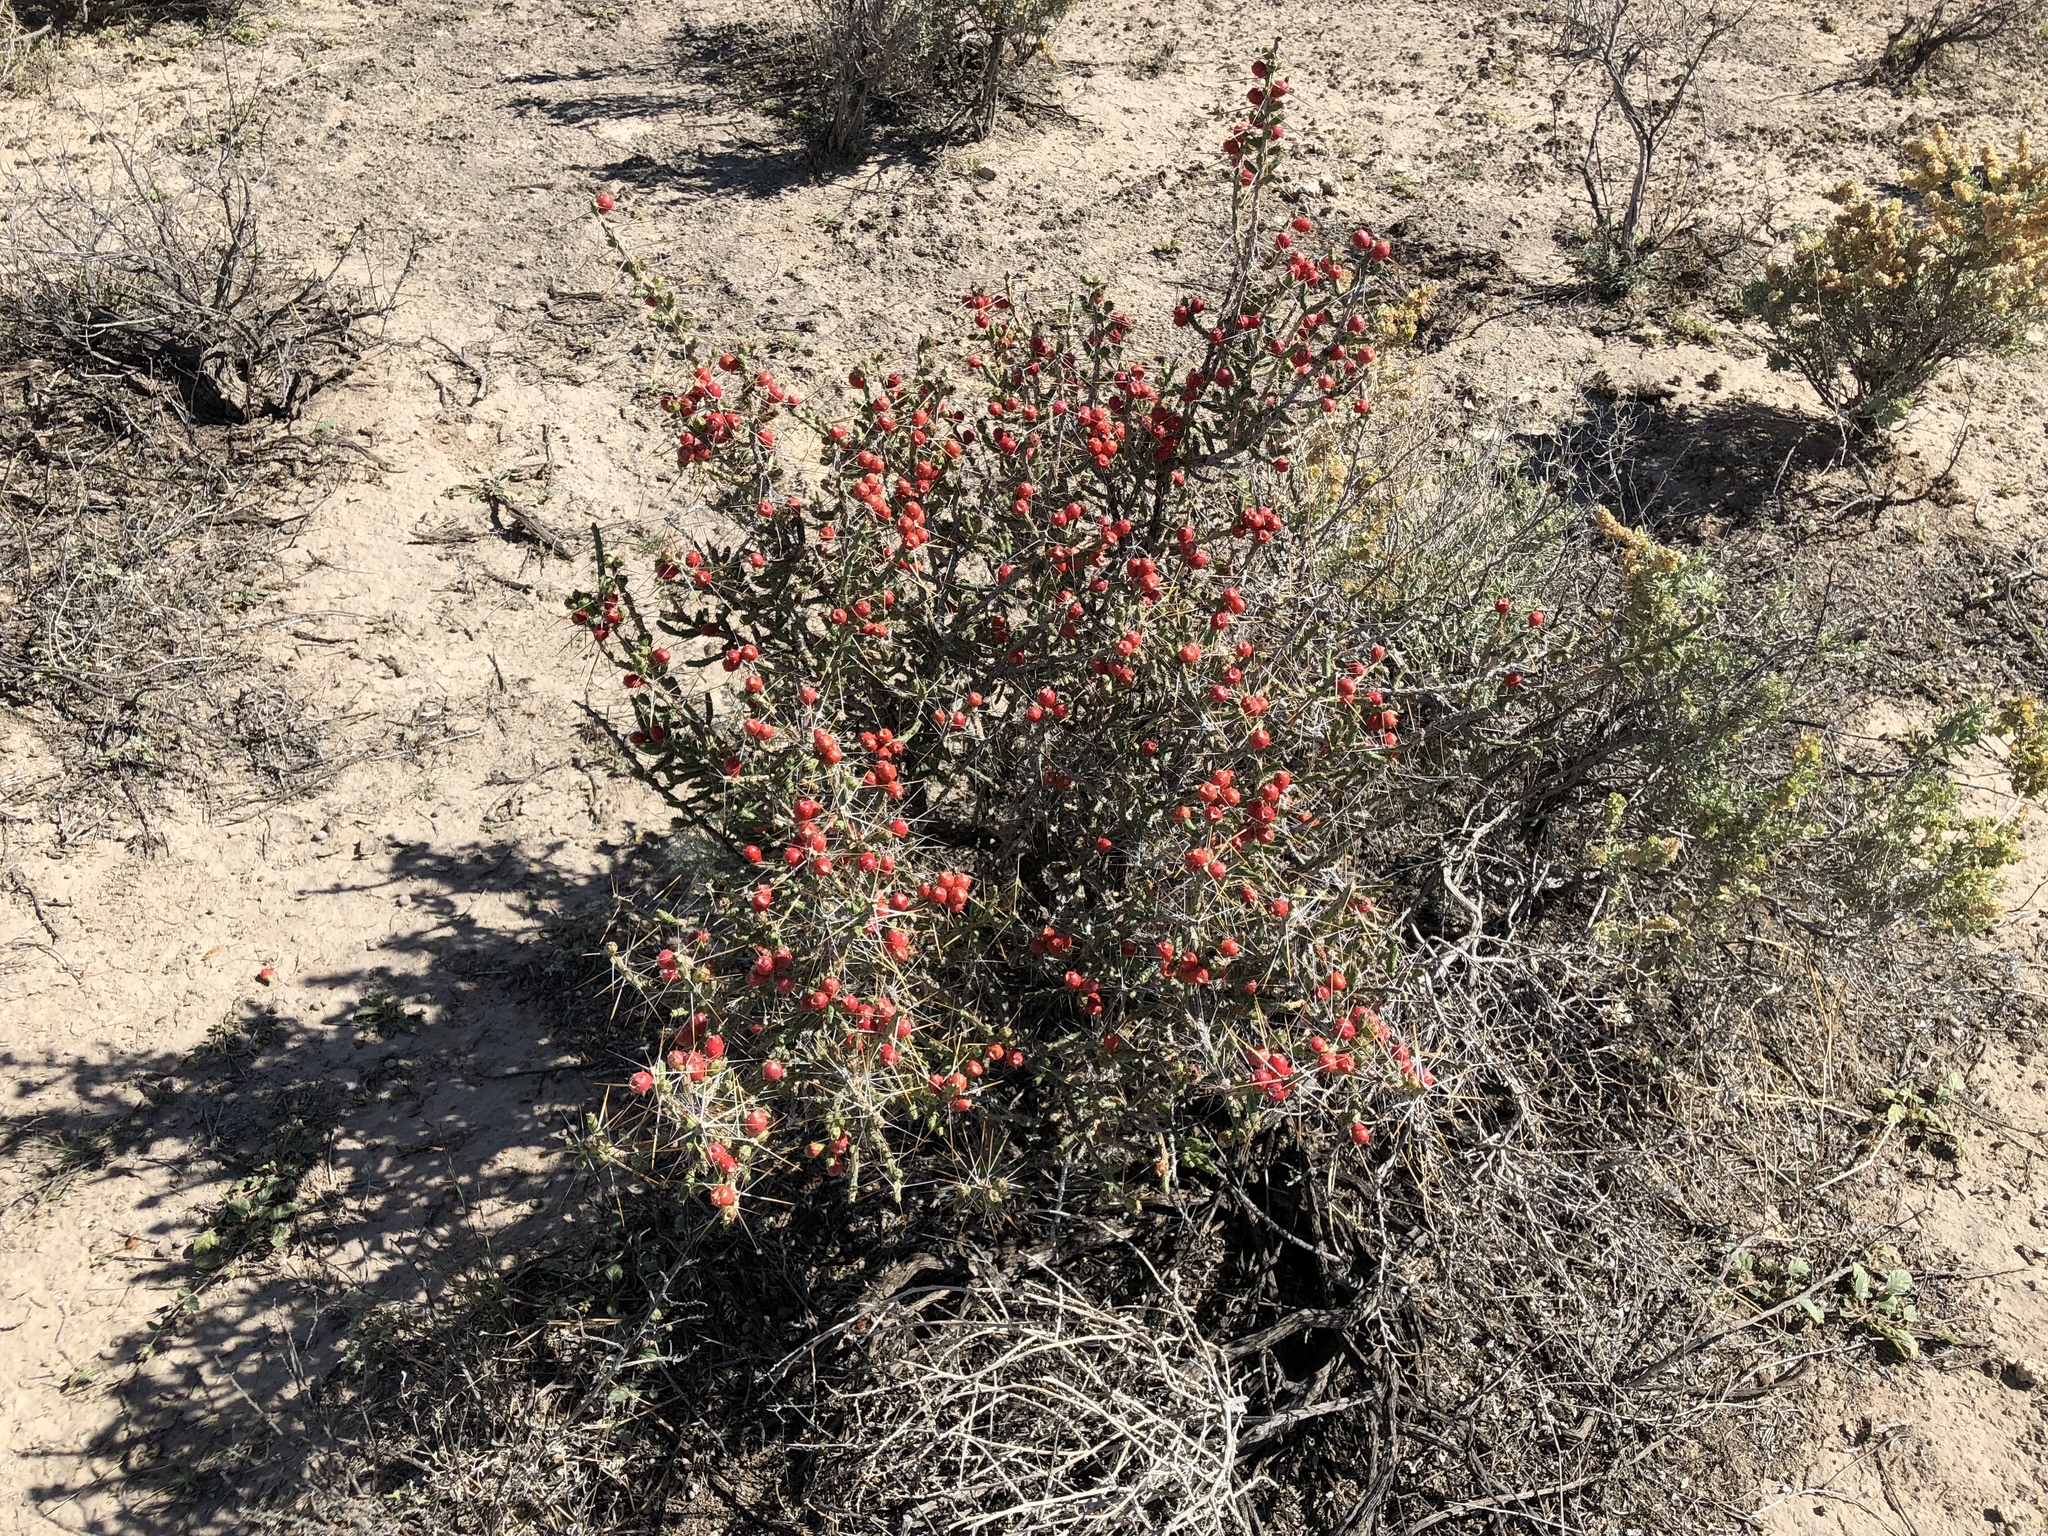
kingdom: Plantae
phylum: Tracheophyta
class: Magnoliopsida
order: Caryophyllales
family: Cactaceae
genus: Cylindropuntia
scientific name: Cylindropuntia leptocaulis
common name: Christmas cactus
